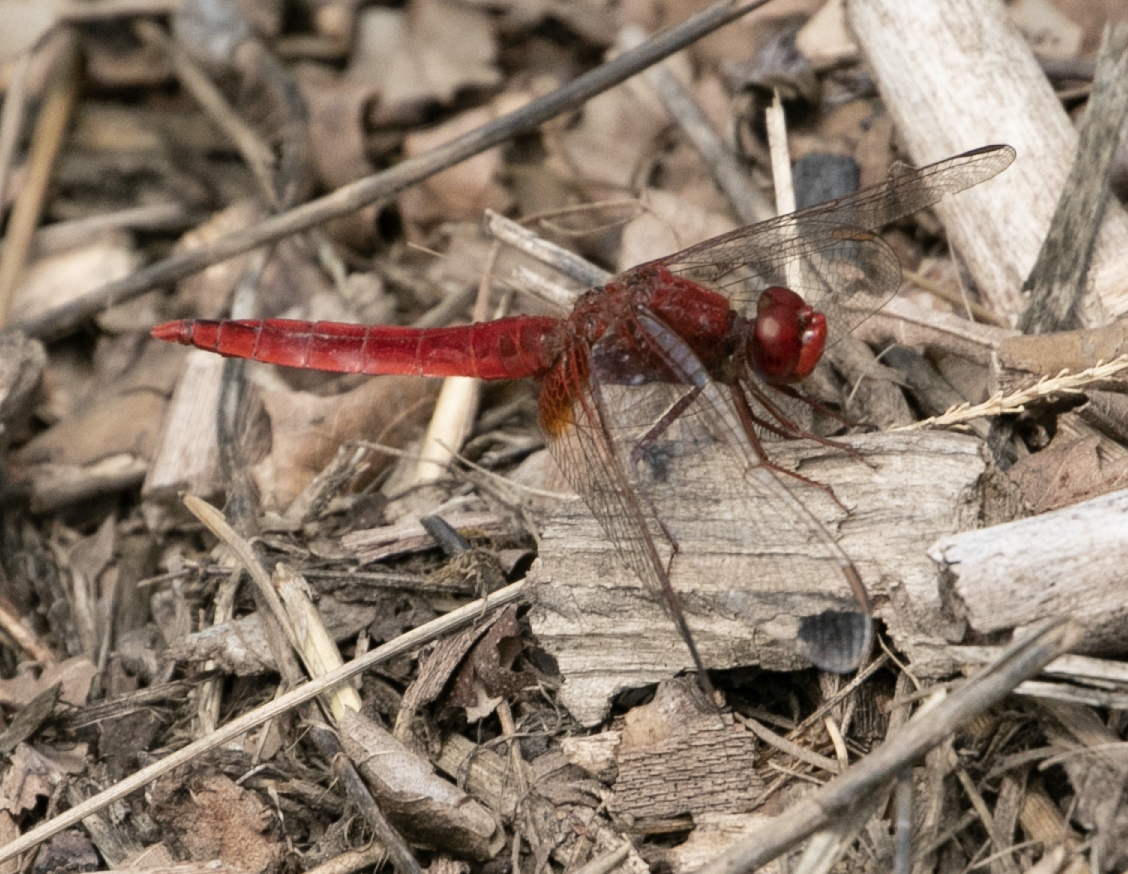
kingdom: Animalia
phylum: Arthropoda
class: Insecta
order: Odonata
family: Libellulidae
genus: Crocothemis
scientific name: Crocothemis erythraea
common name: Scarlet dragonfly
